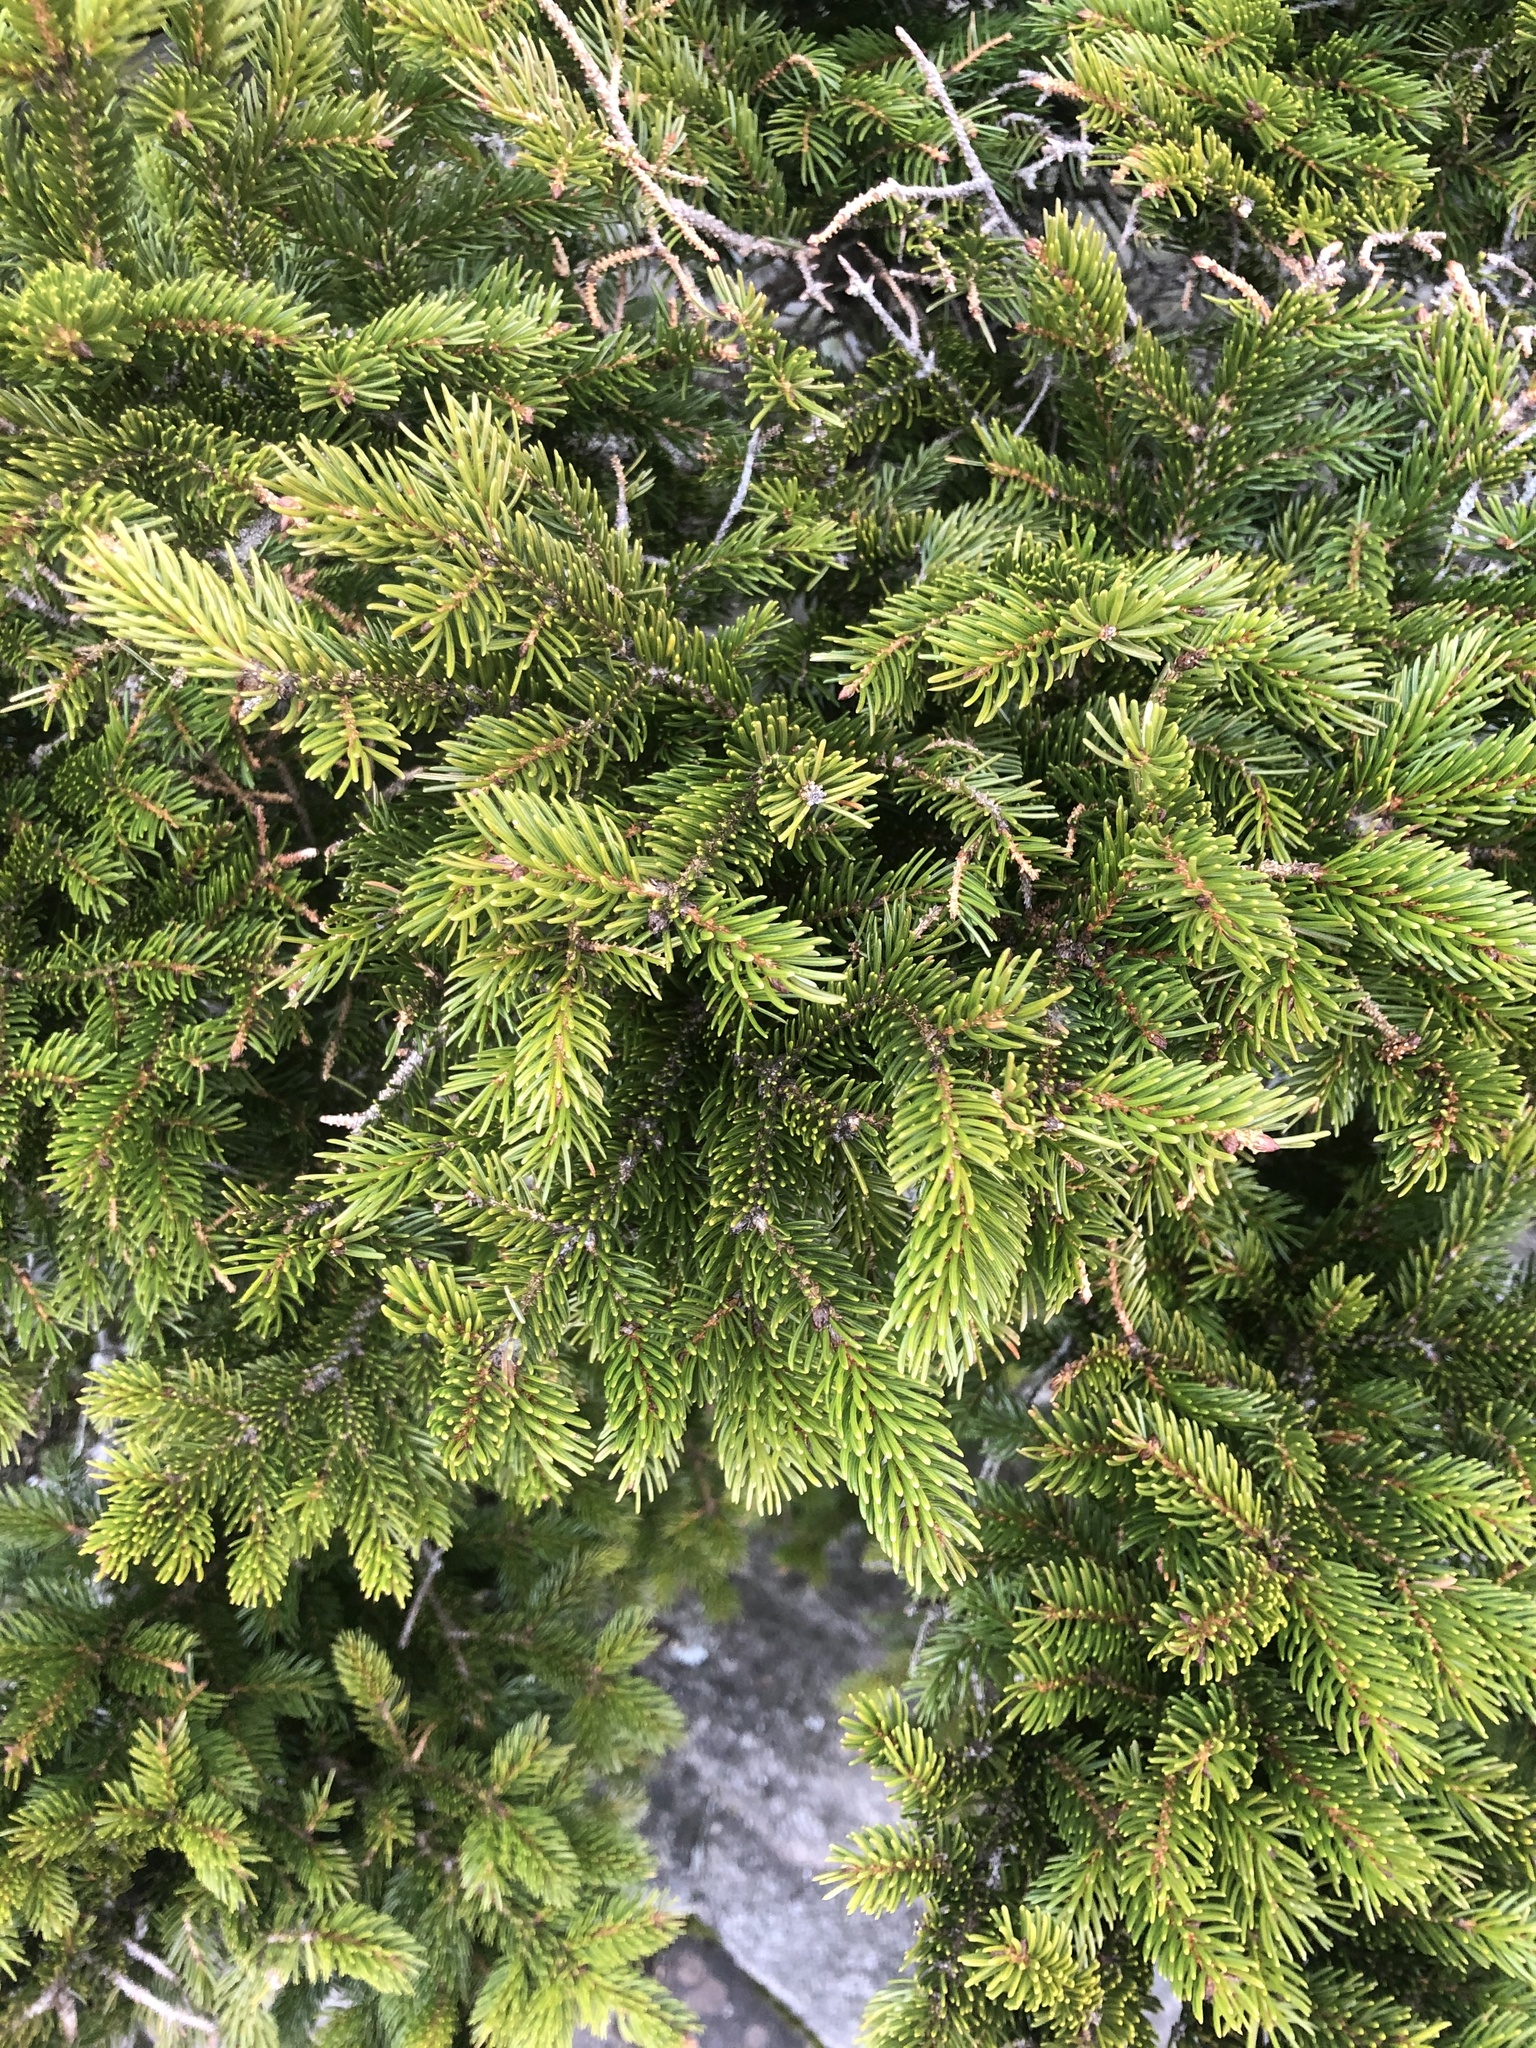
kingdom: Plantae
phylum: Tracheophyta
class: Pinopsida
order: Pinales
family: Pinaceae
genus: Picea
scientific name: Picea rubens
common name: Red spruce
